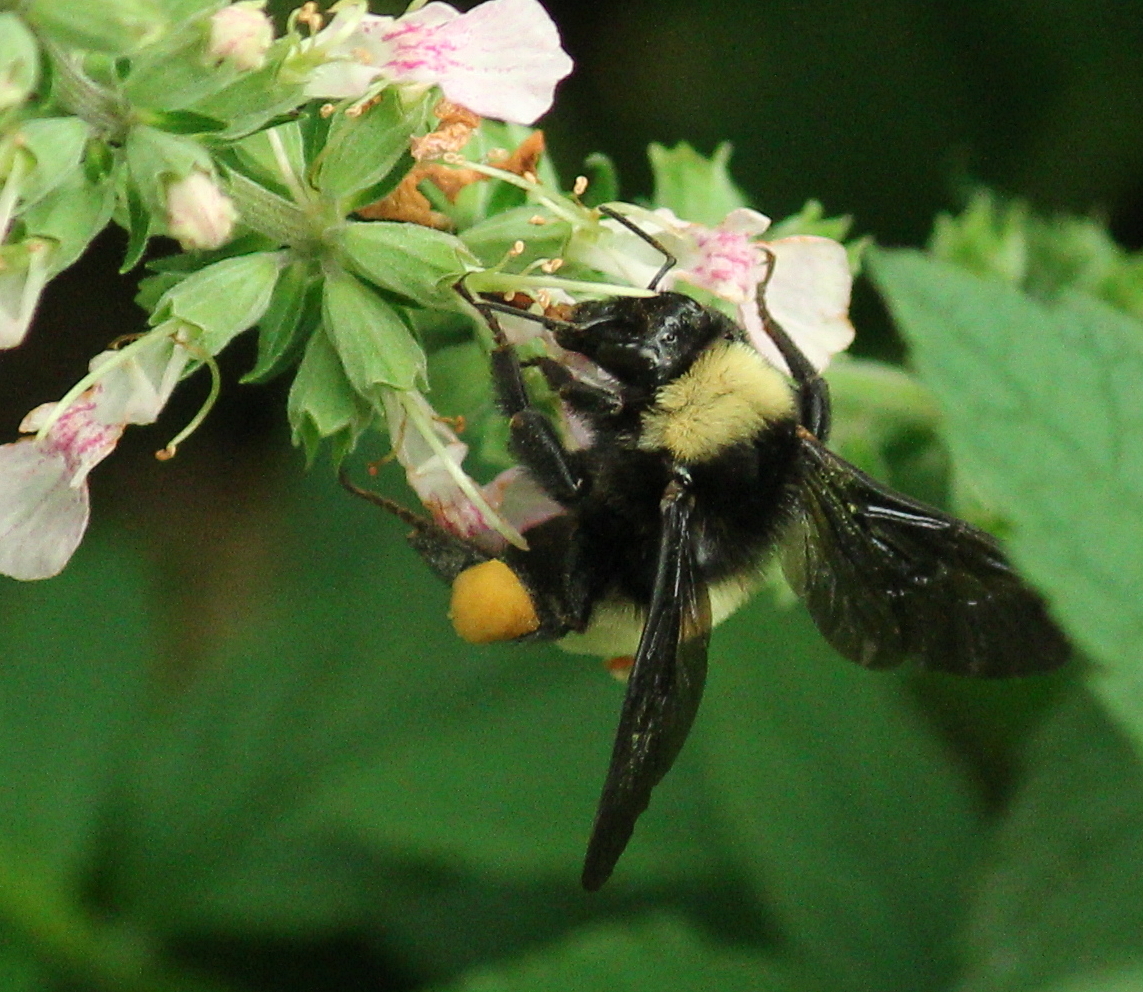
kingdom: Animalia
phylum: Arthropoda
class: Insecta
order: Hymenoptera
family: Apidae
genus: Bombus
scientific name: Bombus pensylvanicus
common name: Bumble bee
